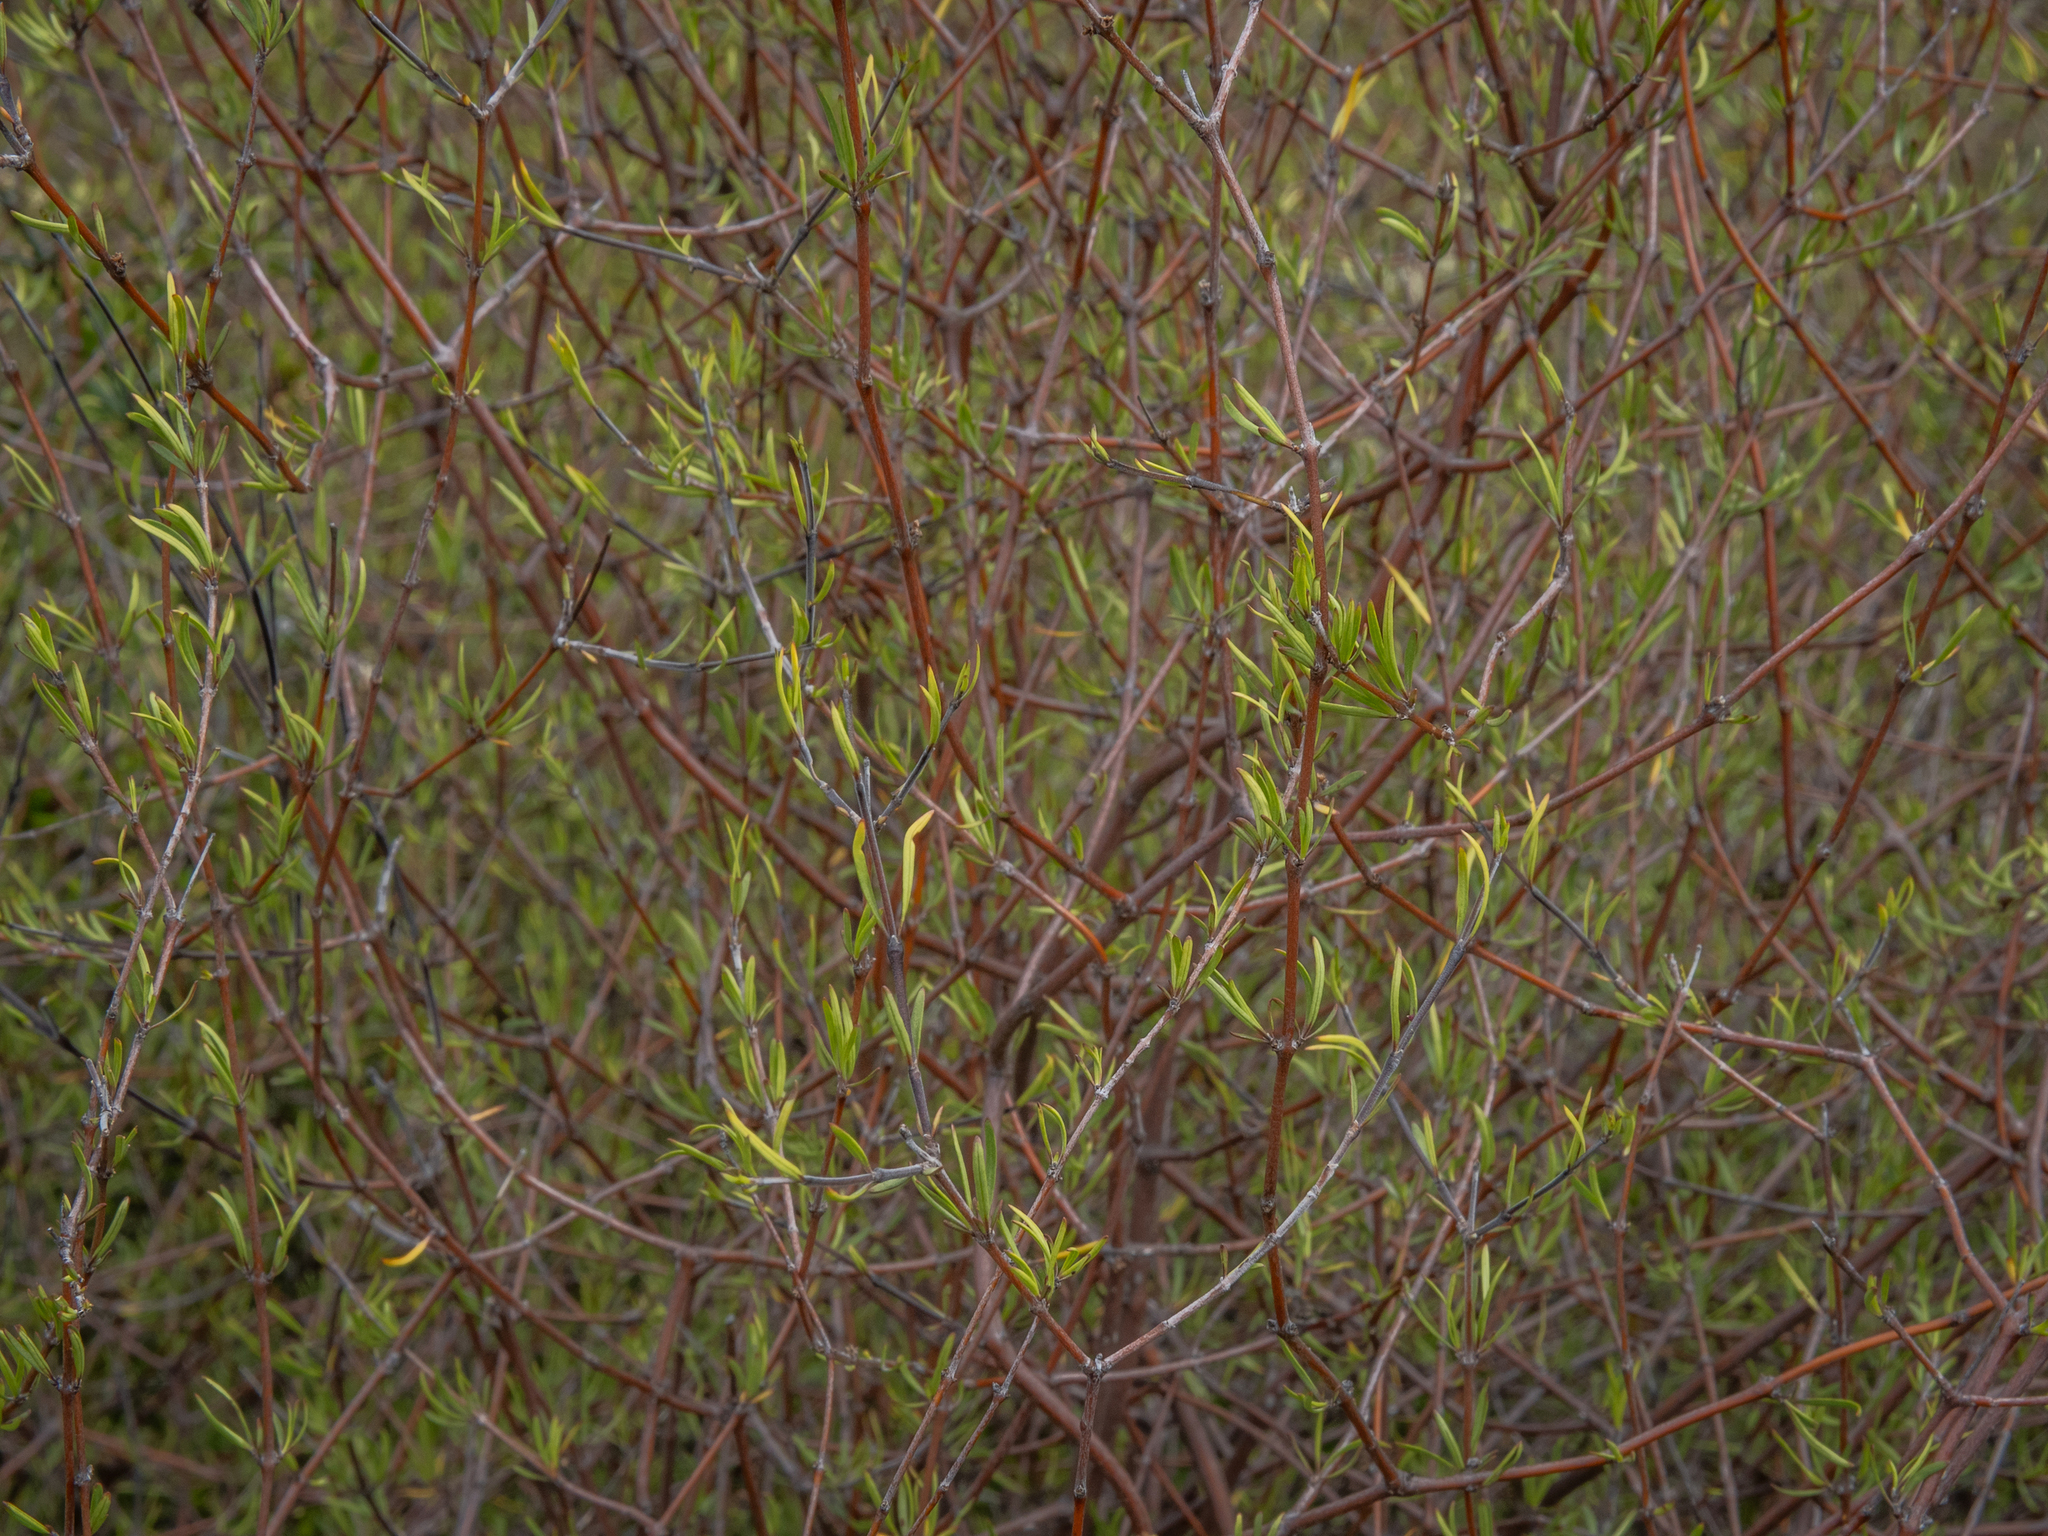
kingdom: Plantae
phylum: Tracheophyta
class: Magnoliopsida
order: Gentianales
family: Rubiaceae
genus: Coprosma
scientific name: Coprosma intertexta
